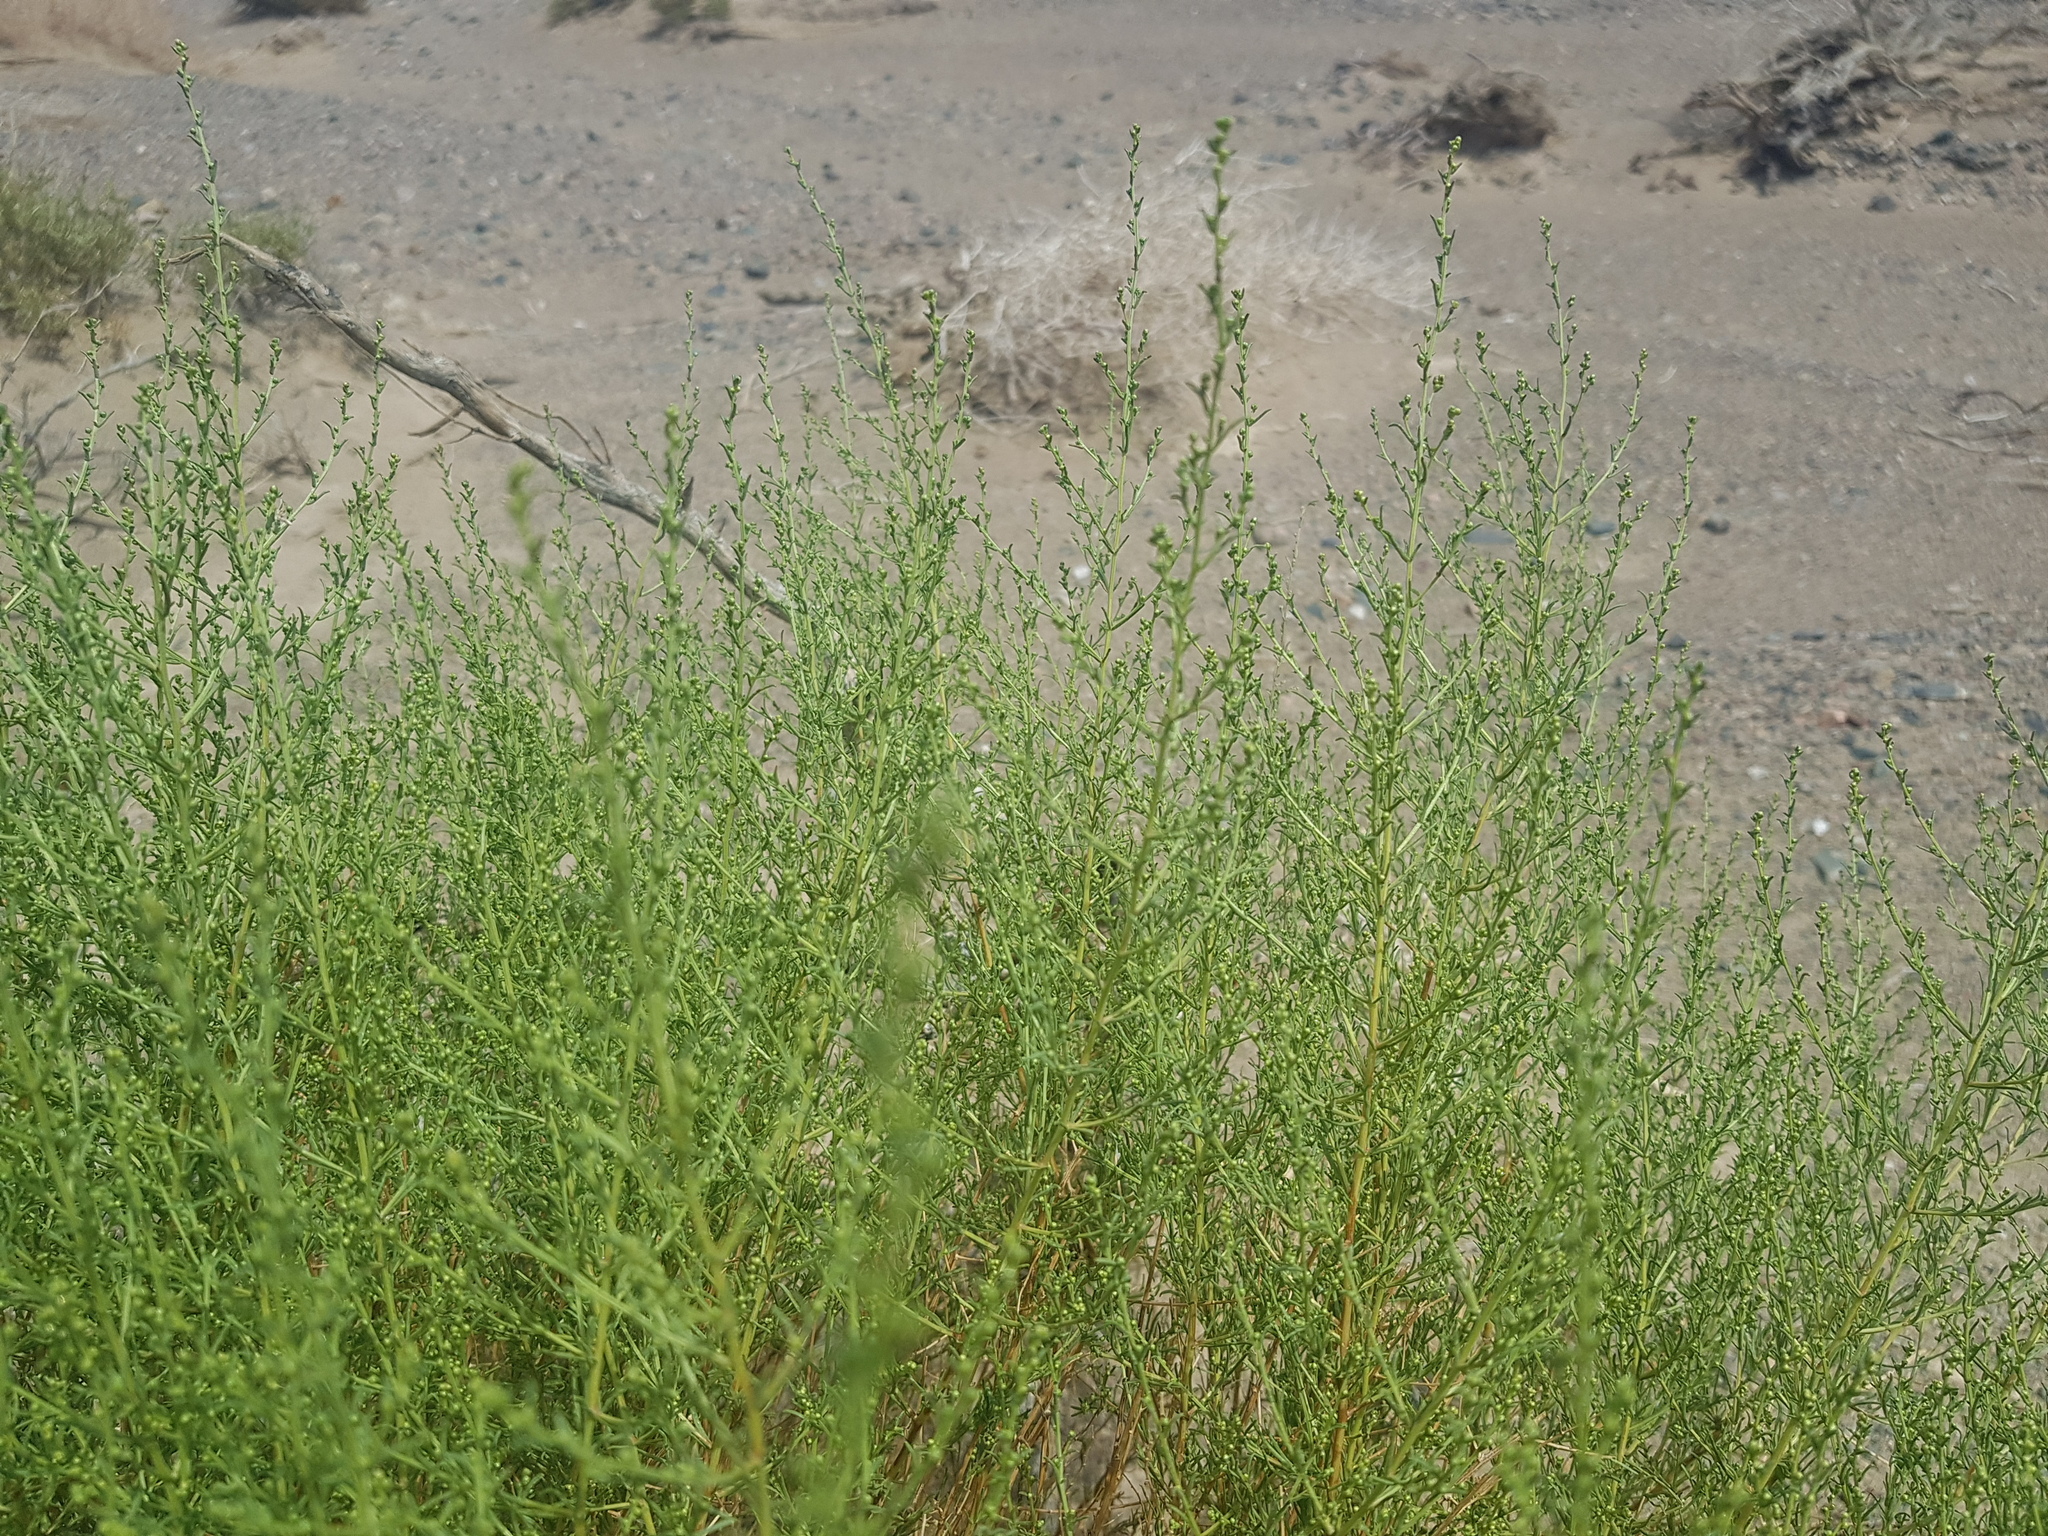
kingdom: Plantae
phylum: Tracheophyta
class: Magnoliopsida
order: Asterales
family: Asteraceae
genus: Artemisia
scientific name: Artemisia xanthochloa
